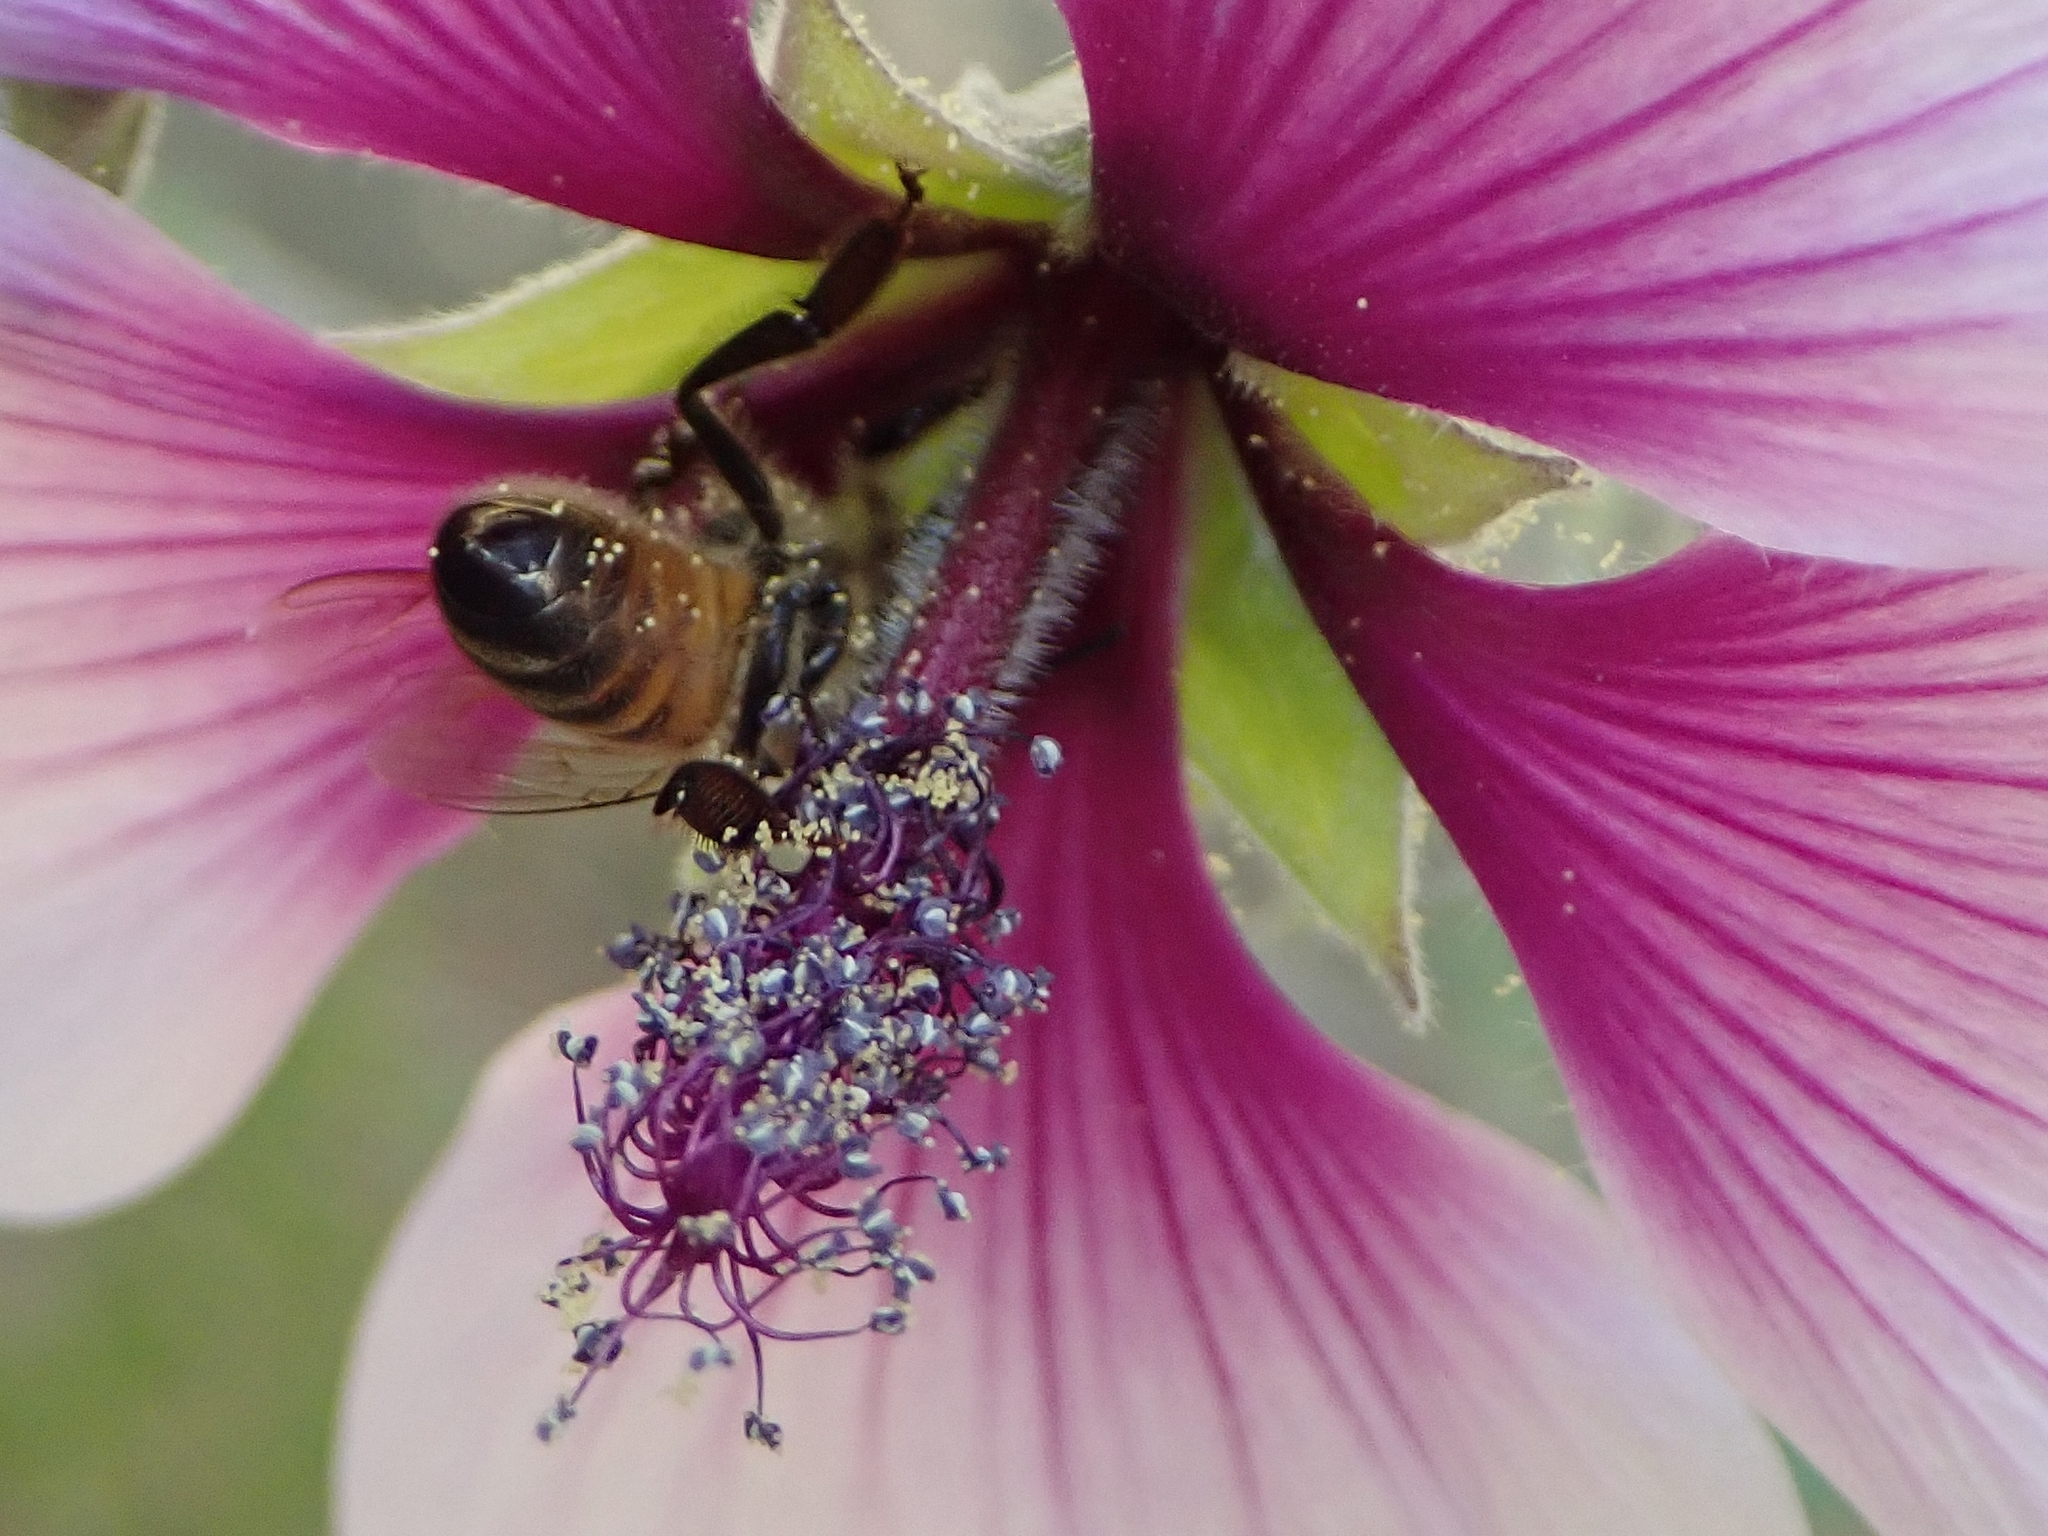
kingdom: Animalia
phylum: Arthropoda
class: Insecta
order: Hymenoptera
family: Apidae
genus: Apis
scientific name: Apis mellifera
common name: Honey bee
